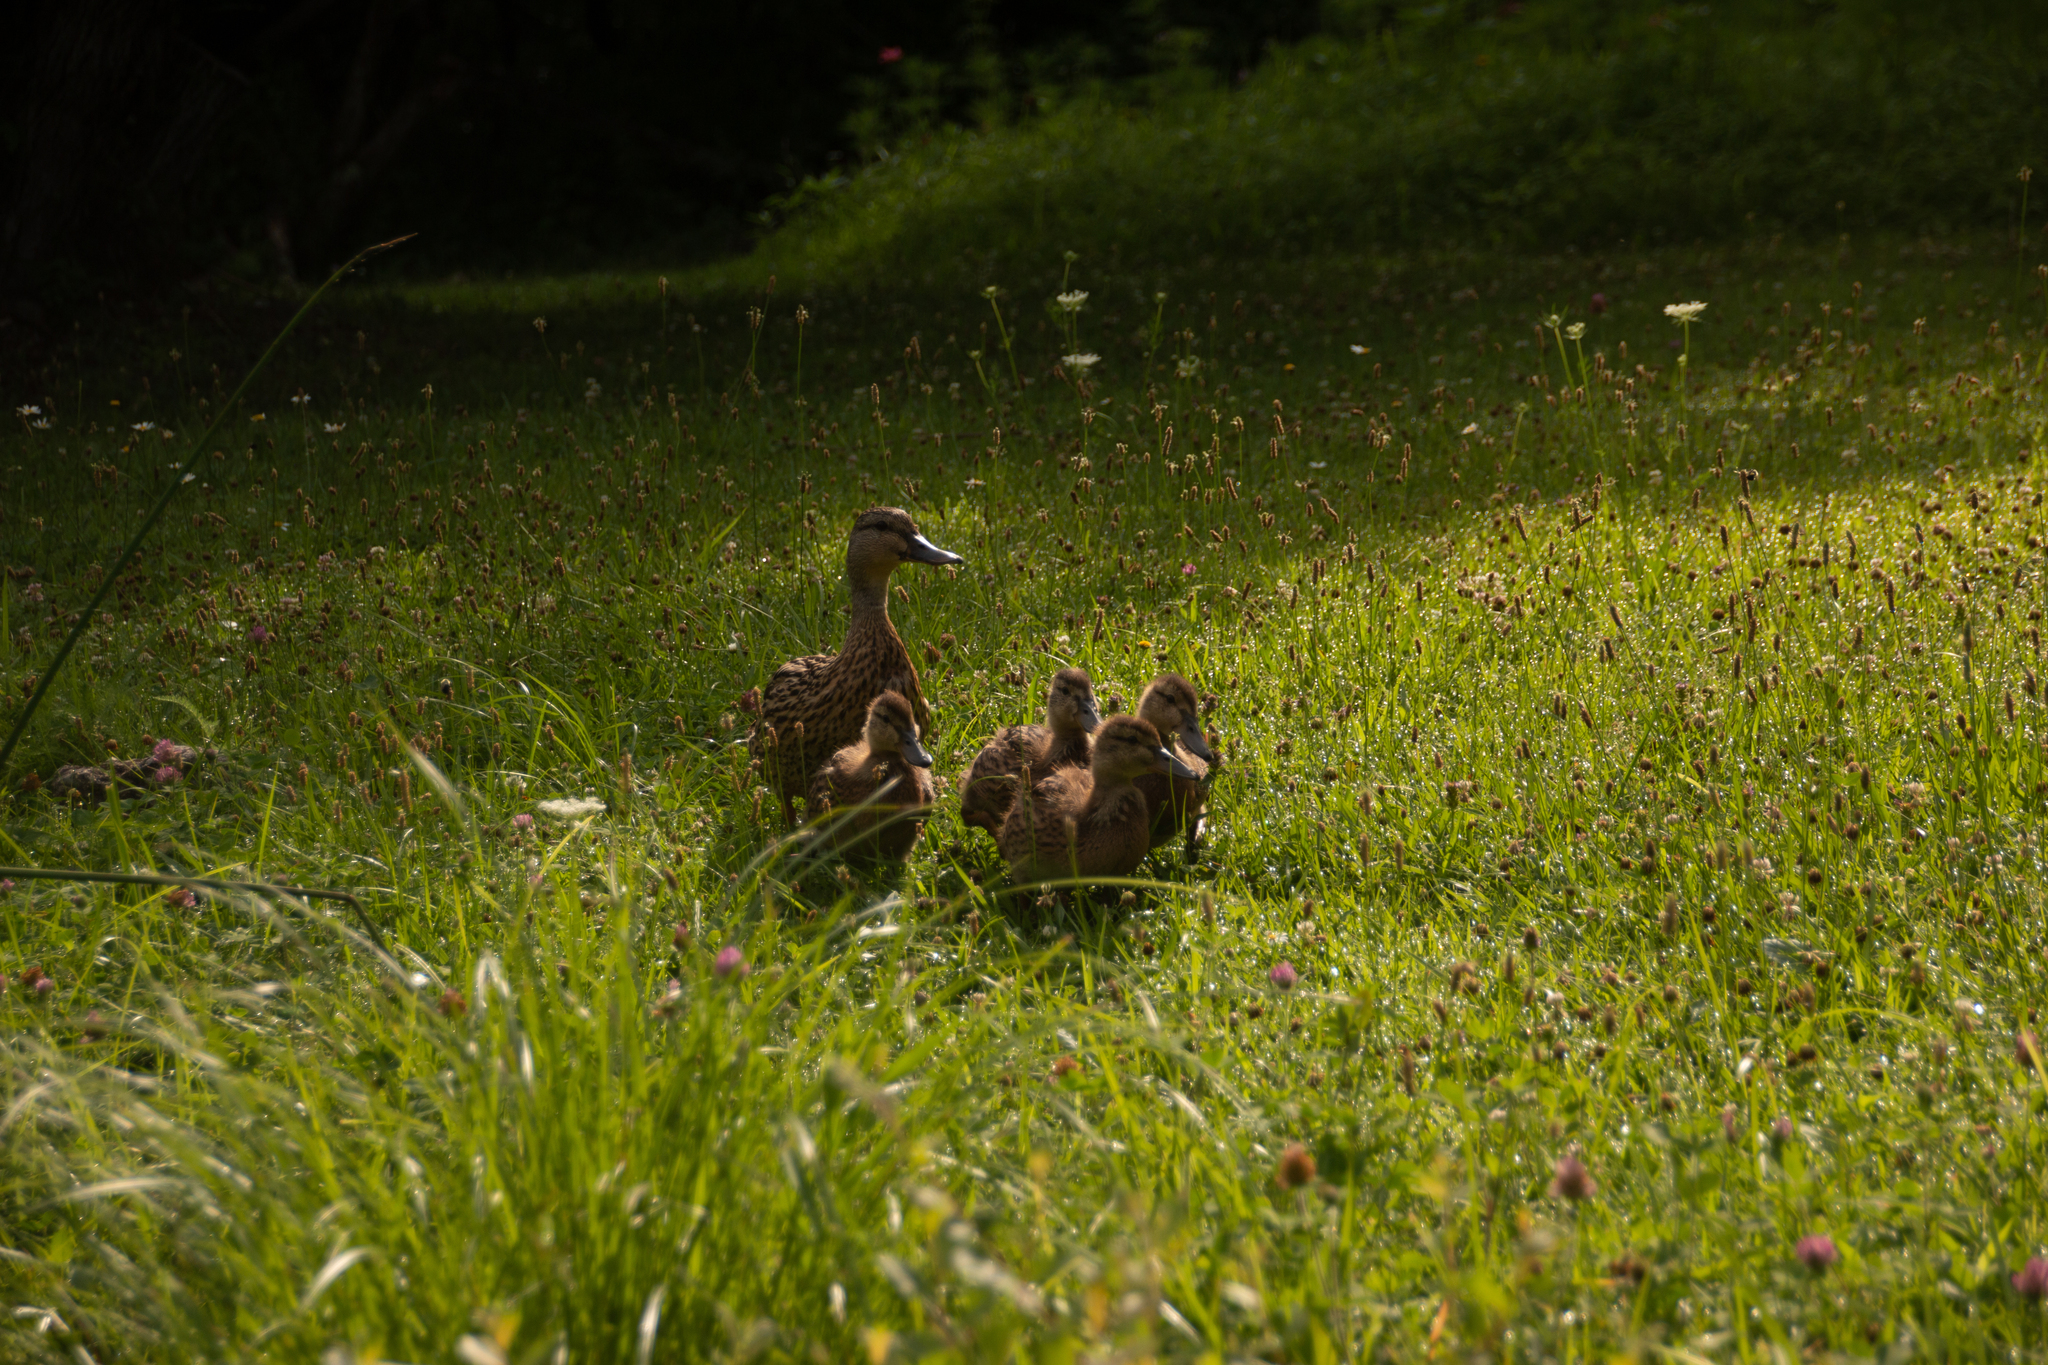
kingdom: Animalia
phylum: Chordata
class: Aves
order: Anseriformes
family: Anatidae
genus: Anas
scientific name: Anas platyrhynchos
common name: Mallard
